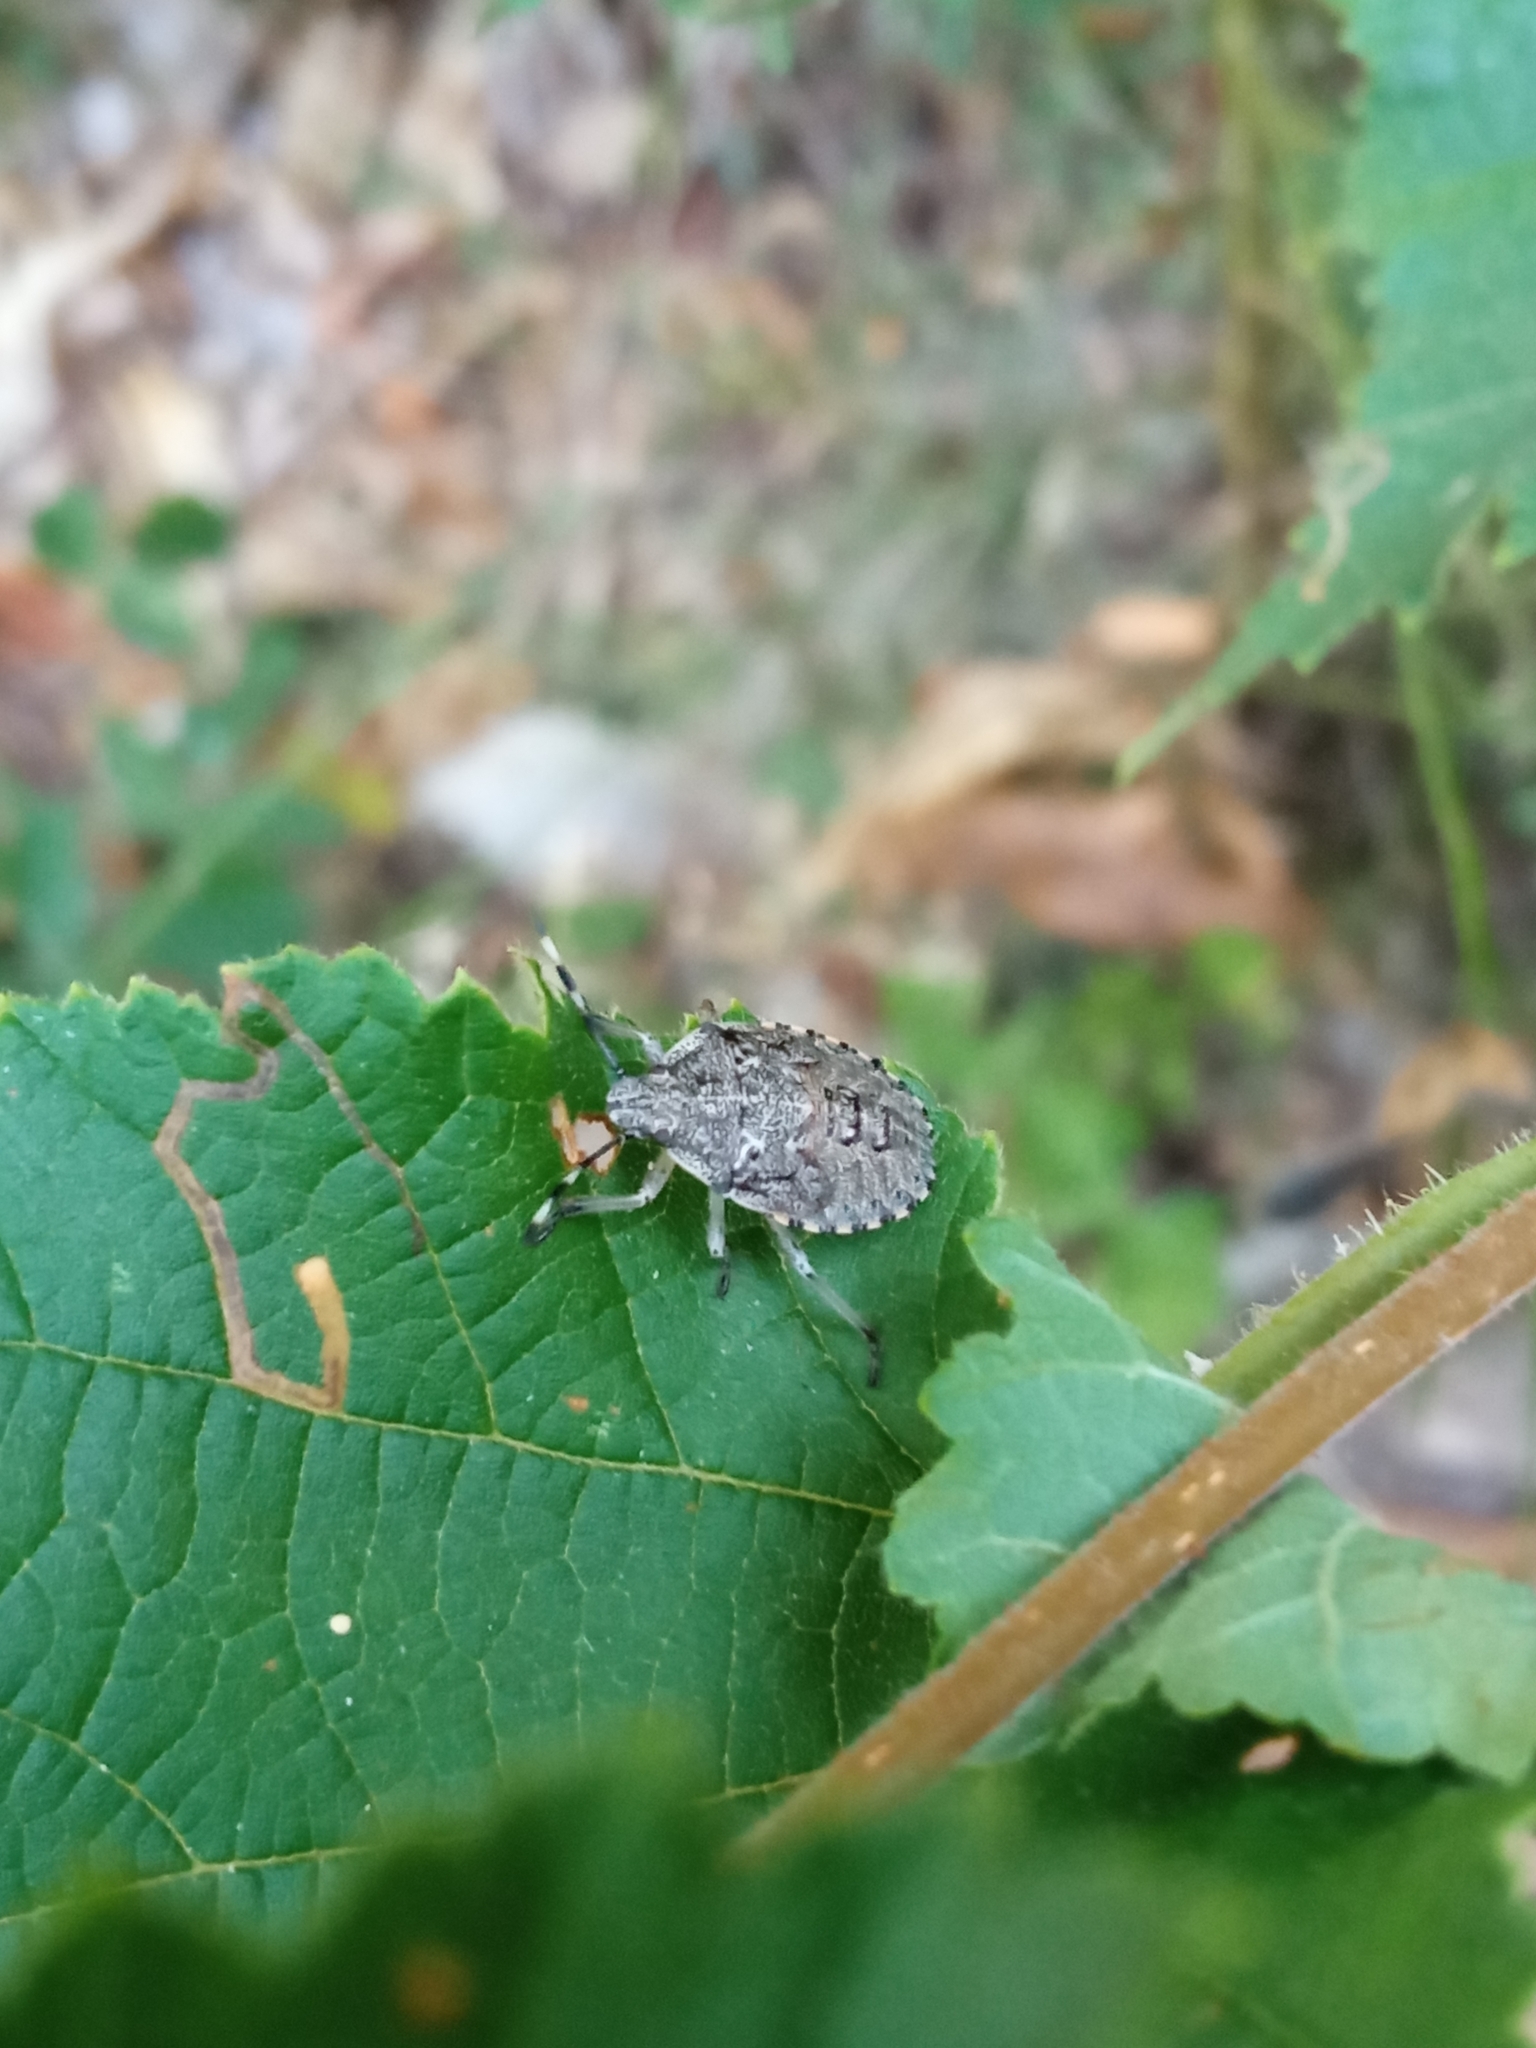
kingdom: Animalia
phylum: Arthropoda
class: Insecta
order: Hemiptera
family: Pentatomidae
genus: Rhaphigaster
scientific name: Rhaphigaster nebulosa
